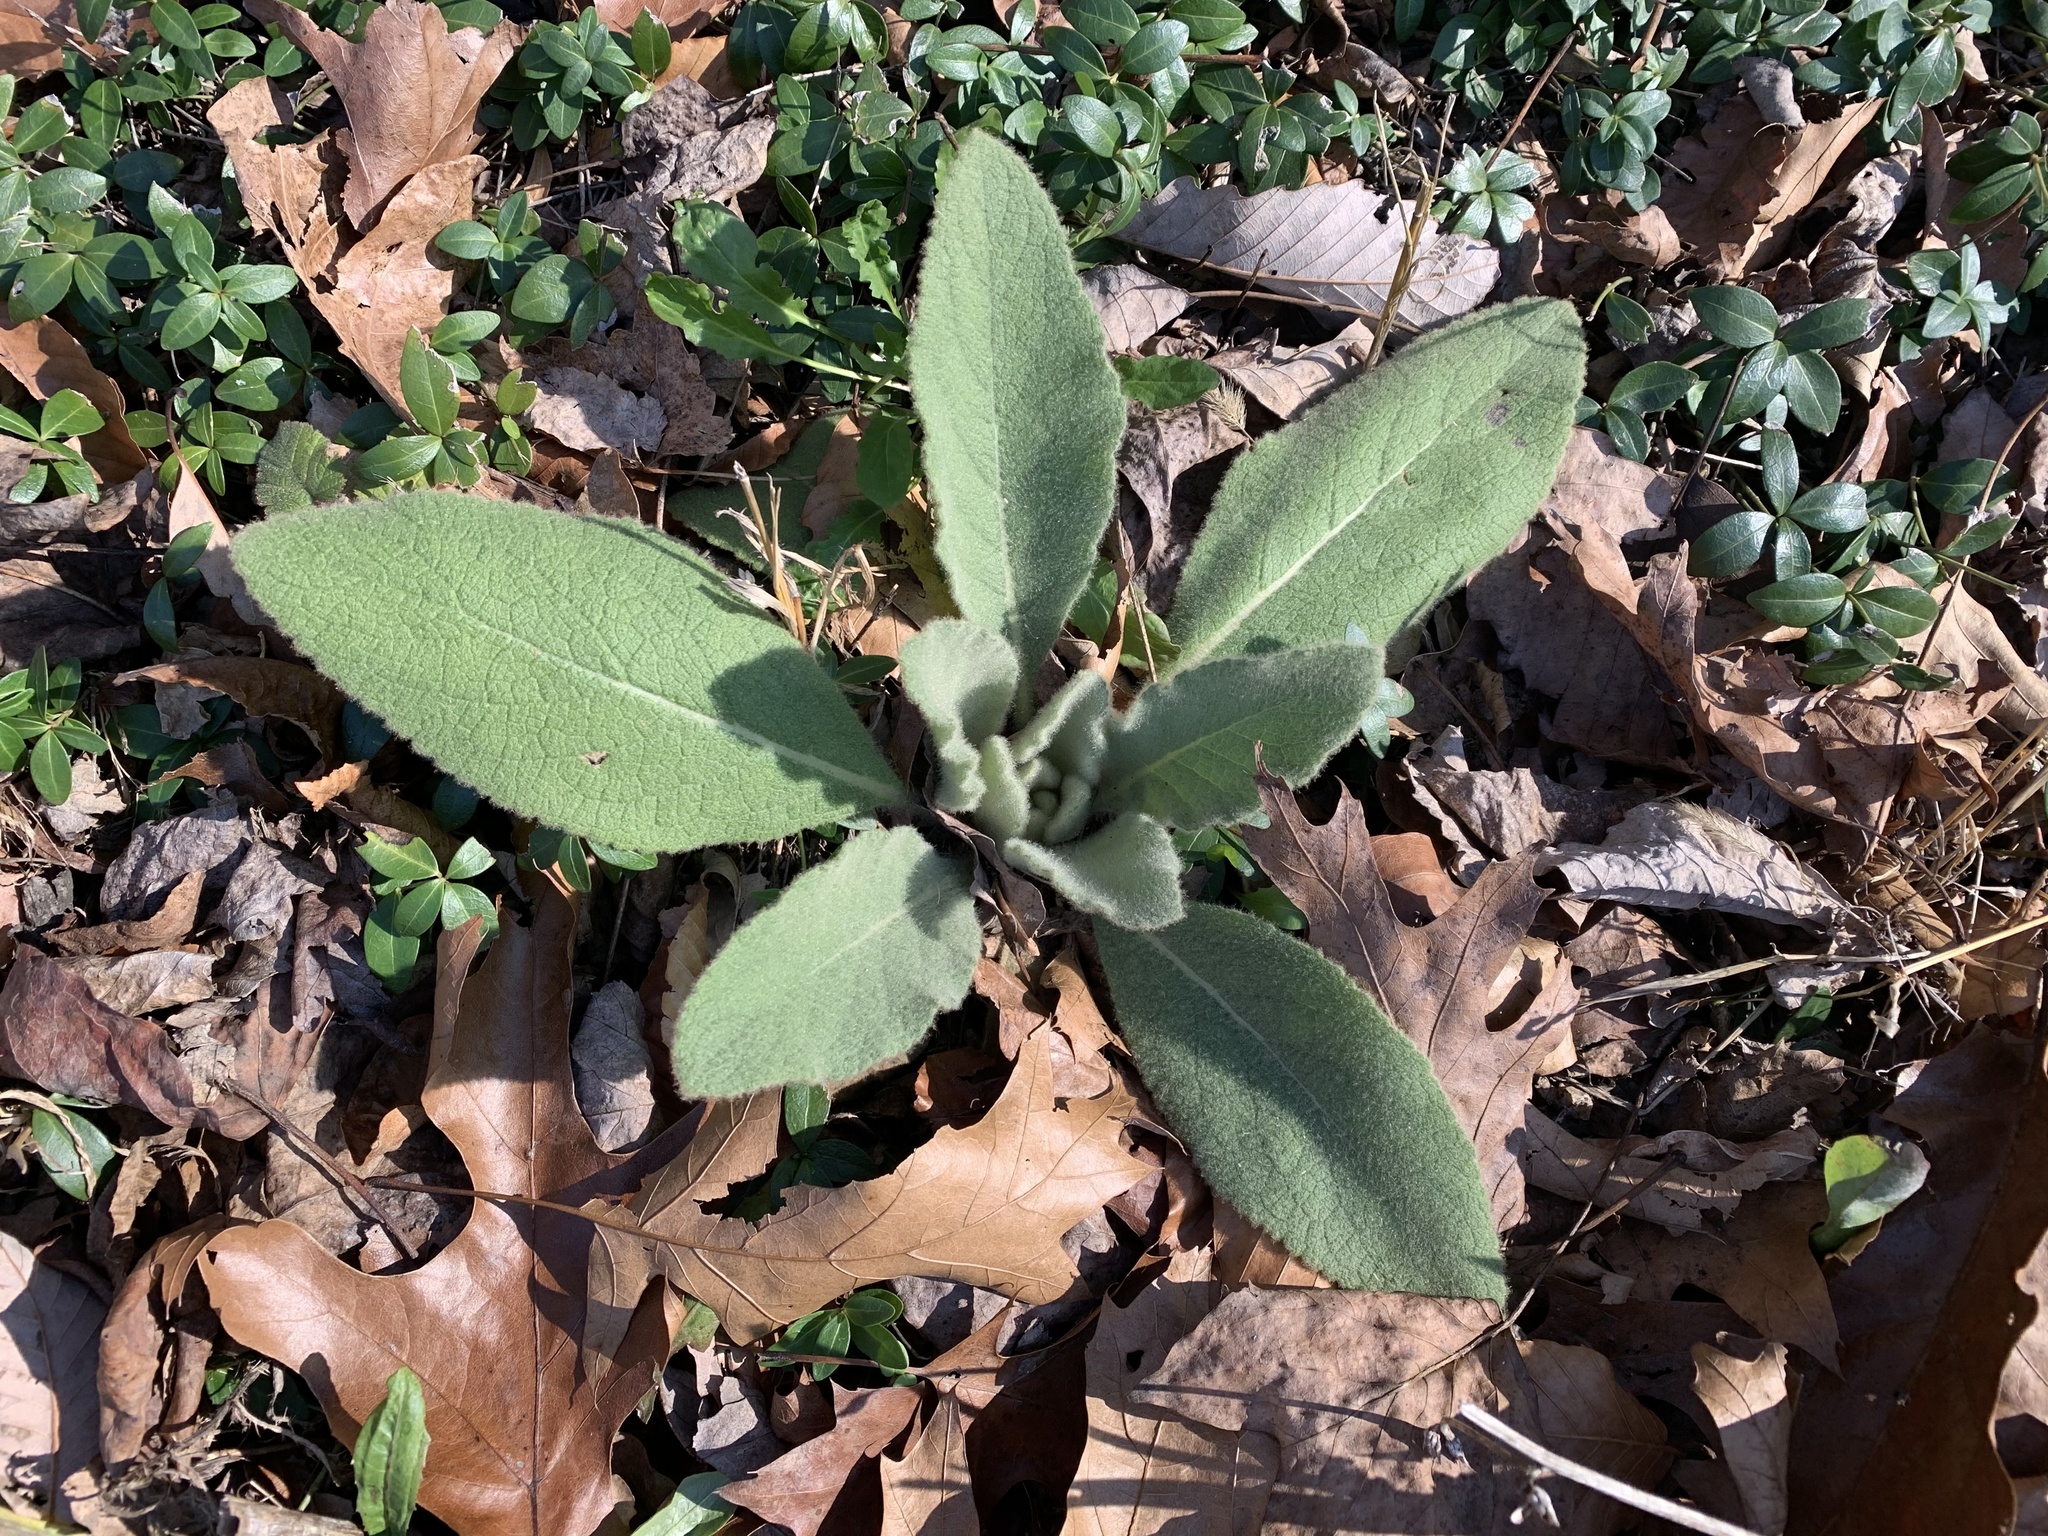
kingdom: Plantae
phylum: Tracheophyta
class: Magnoliopsida
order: Lamiales
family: Scrophulariaceae
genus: Verbascum
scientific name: Verbascum thapsus
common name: Common mullein
